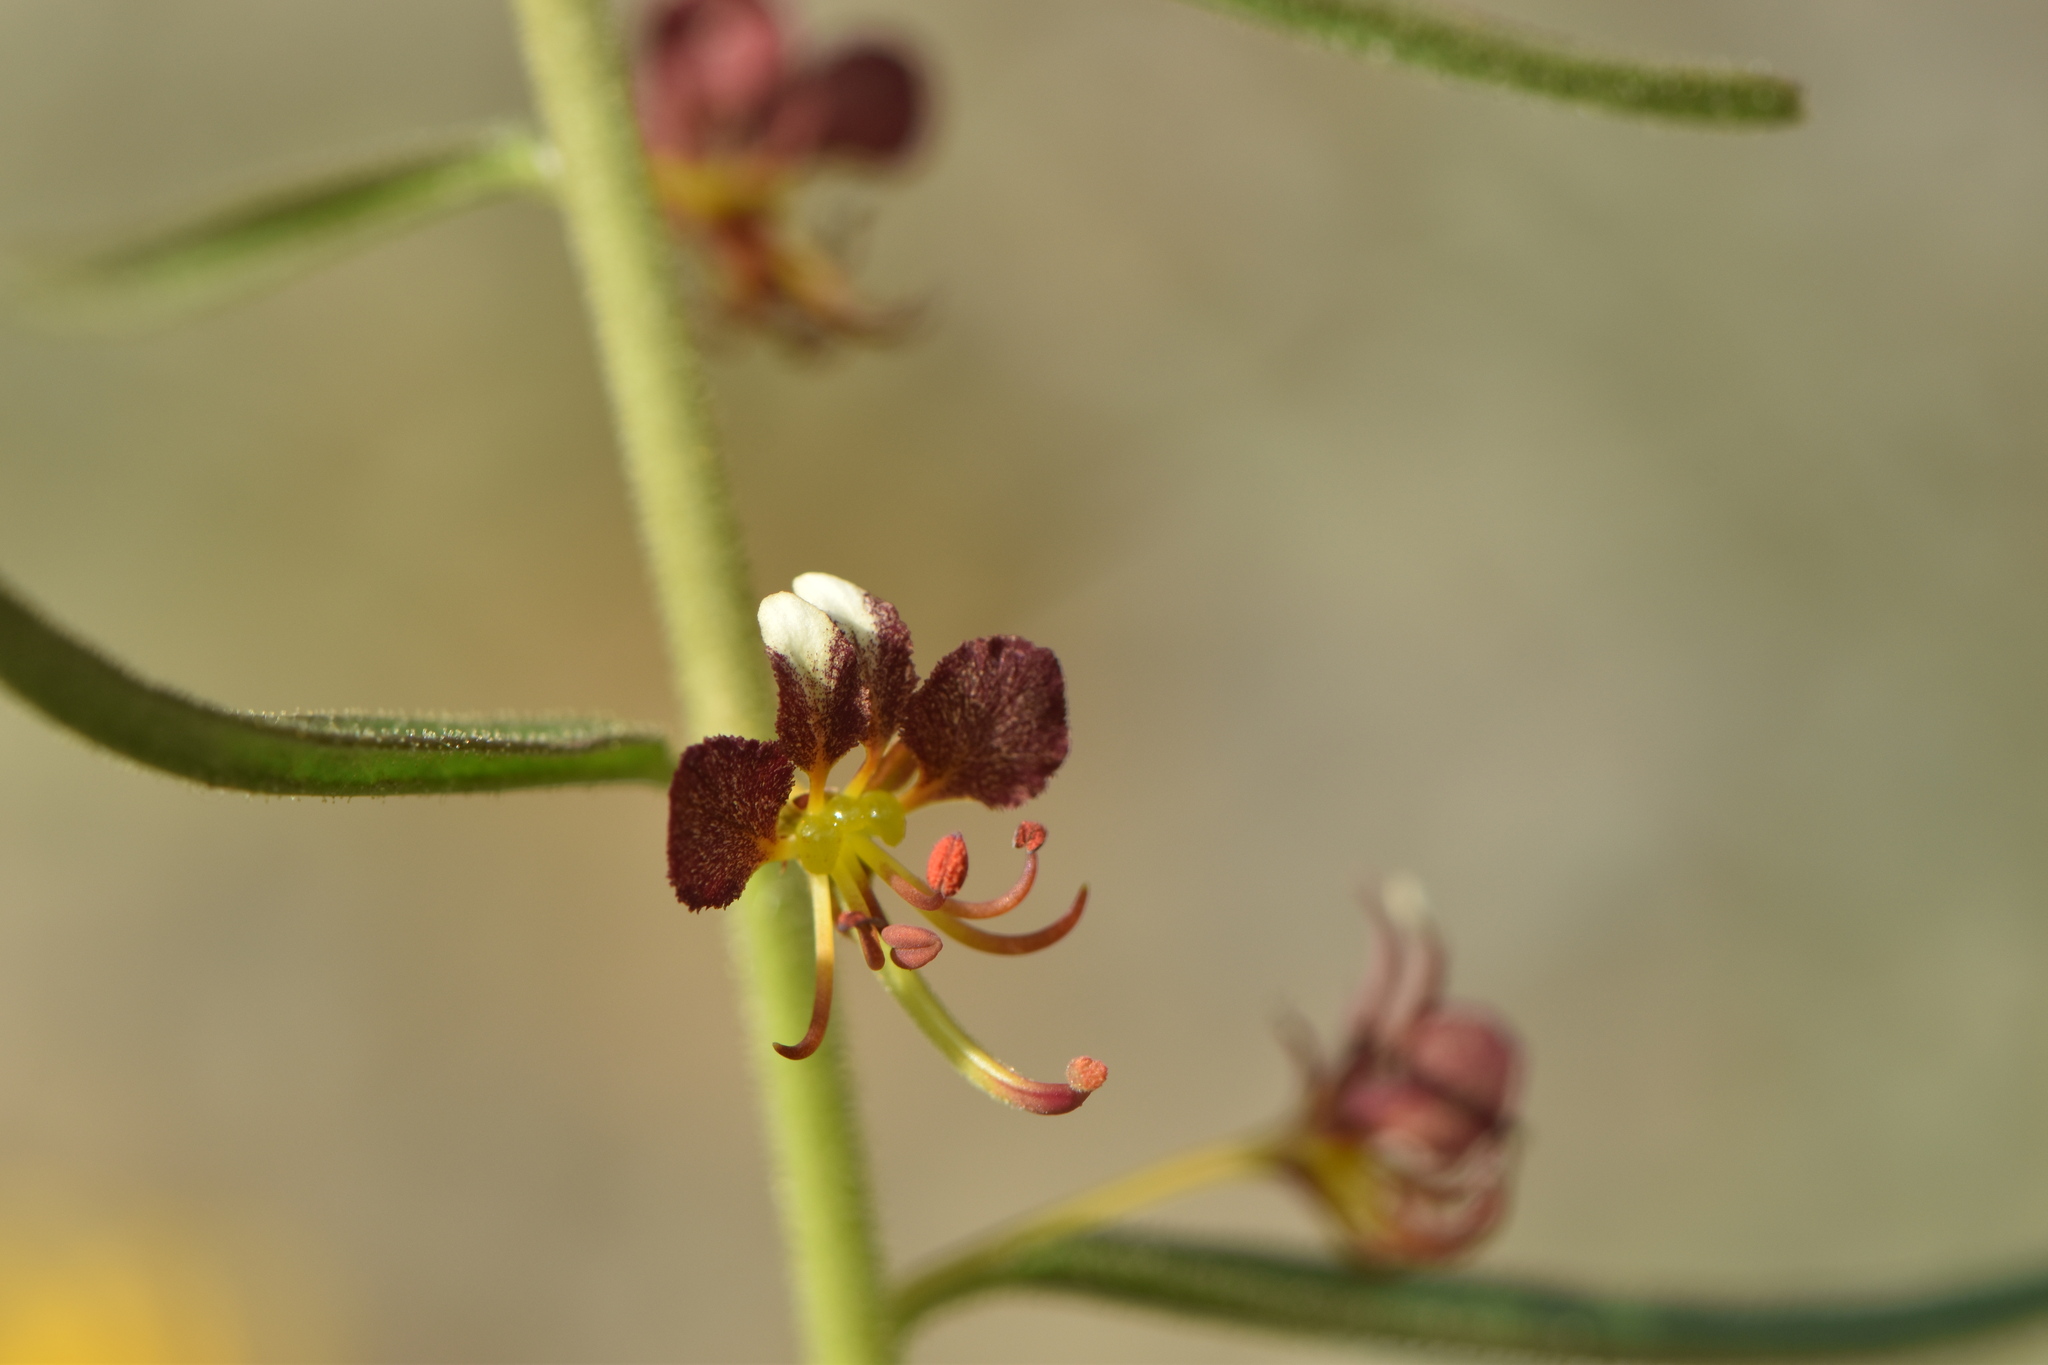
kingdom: Plantae
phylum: Tracheophyta
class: Magnoliopsida
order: Brassicales
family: Cleomaceae
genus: Cleome
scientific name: Cleome violacea
